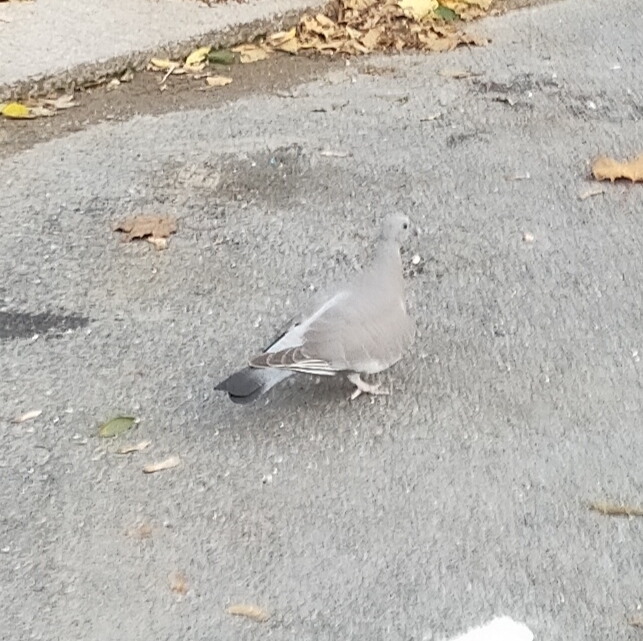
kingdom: Animalia
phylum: Chordata
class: Aves
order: Columbiformes
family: Columbidae
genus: Columba
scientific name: Columba palumbus
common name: Common wood pigeon
